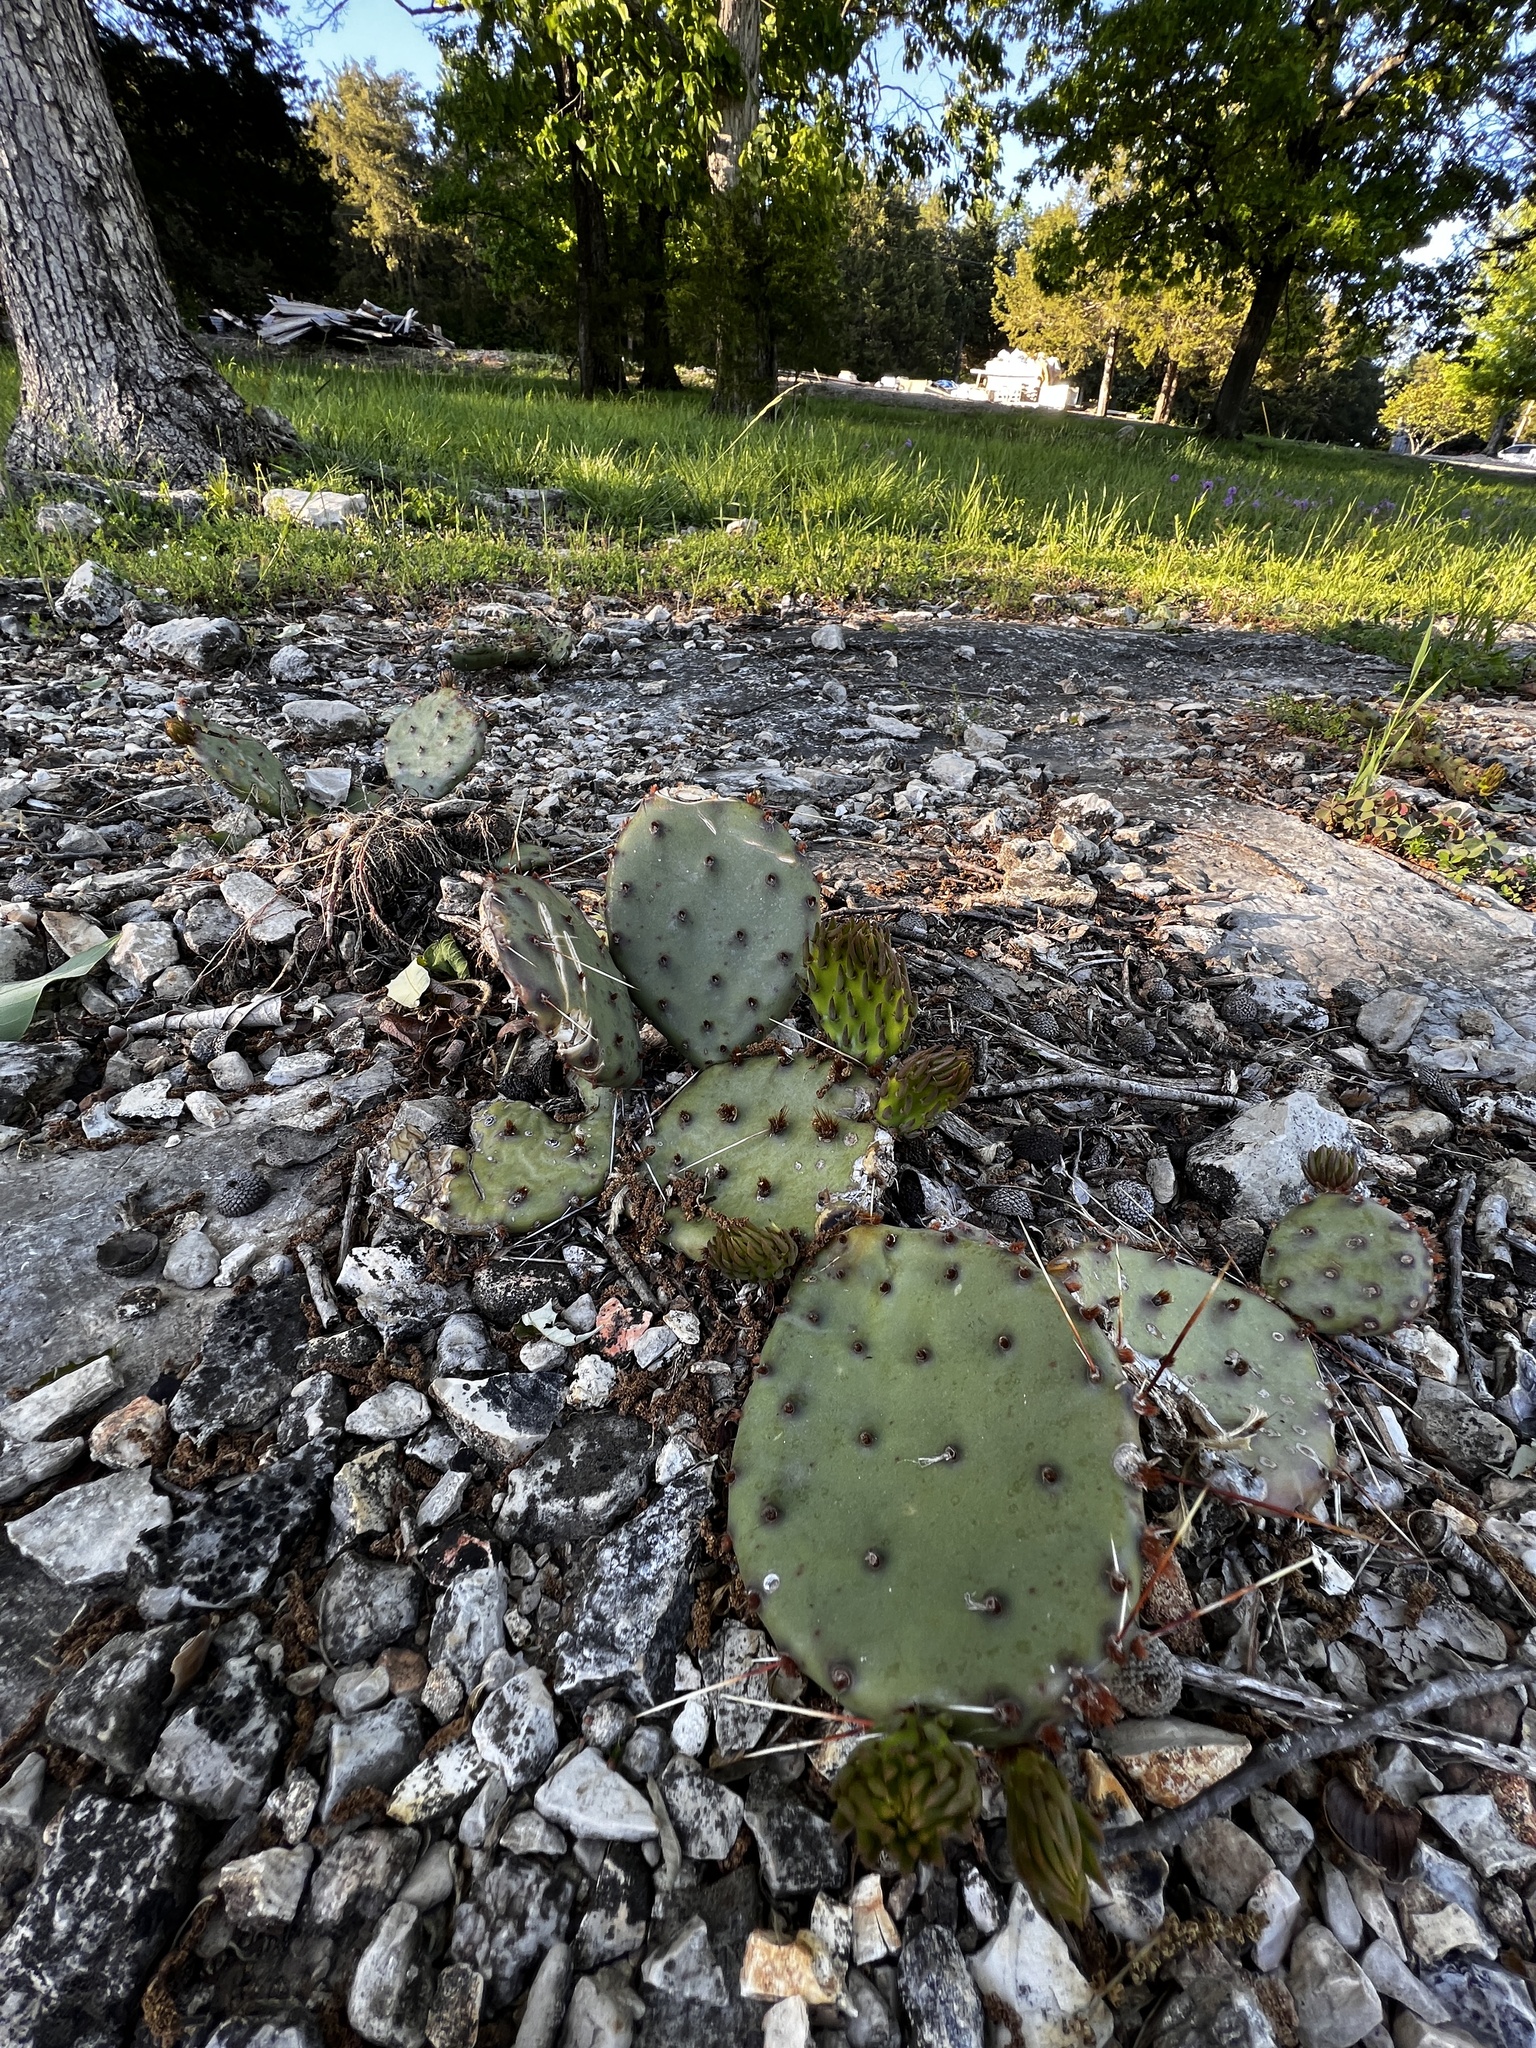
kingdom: Plantae
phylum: Tracheophyta
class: Magnoliopsida
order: Caryophyllales
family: Cactaceae
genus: Opuntia
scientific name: Opuntia macrorhiza
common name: Grassland pricklypear
